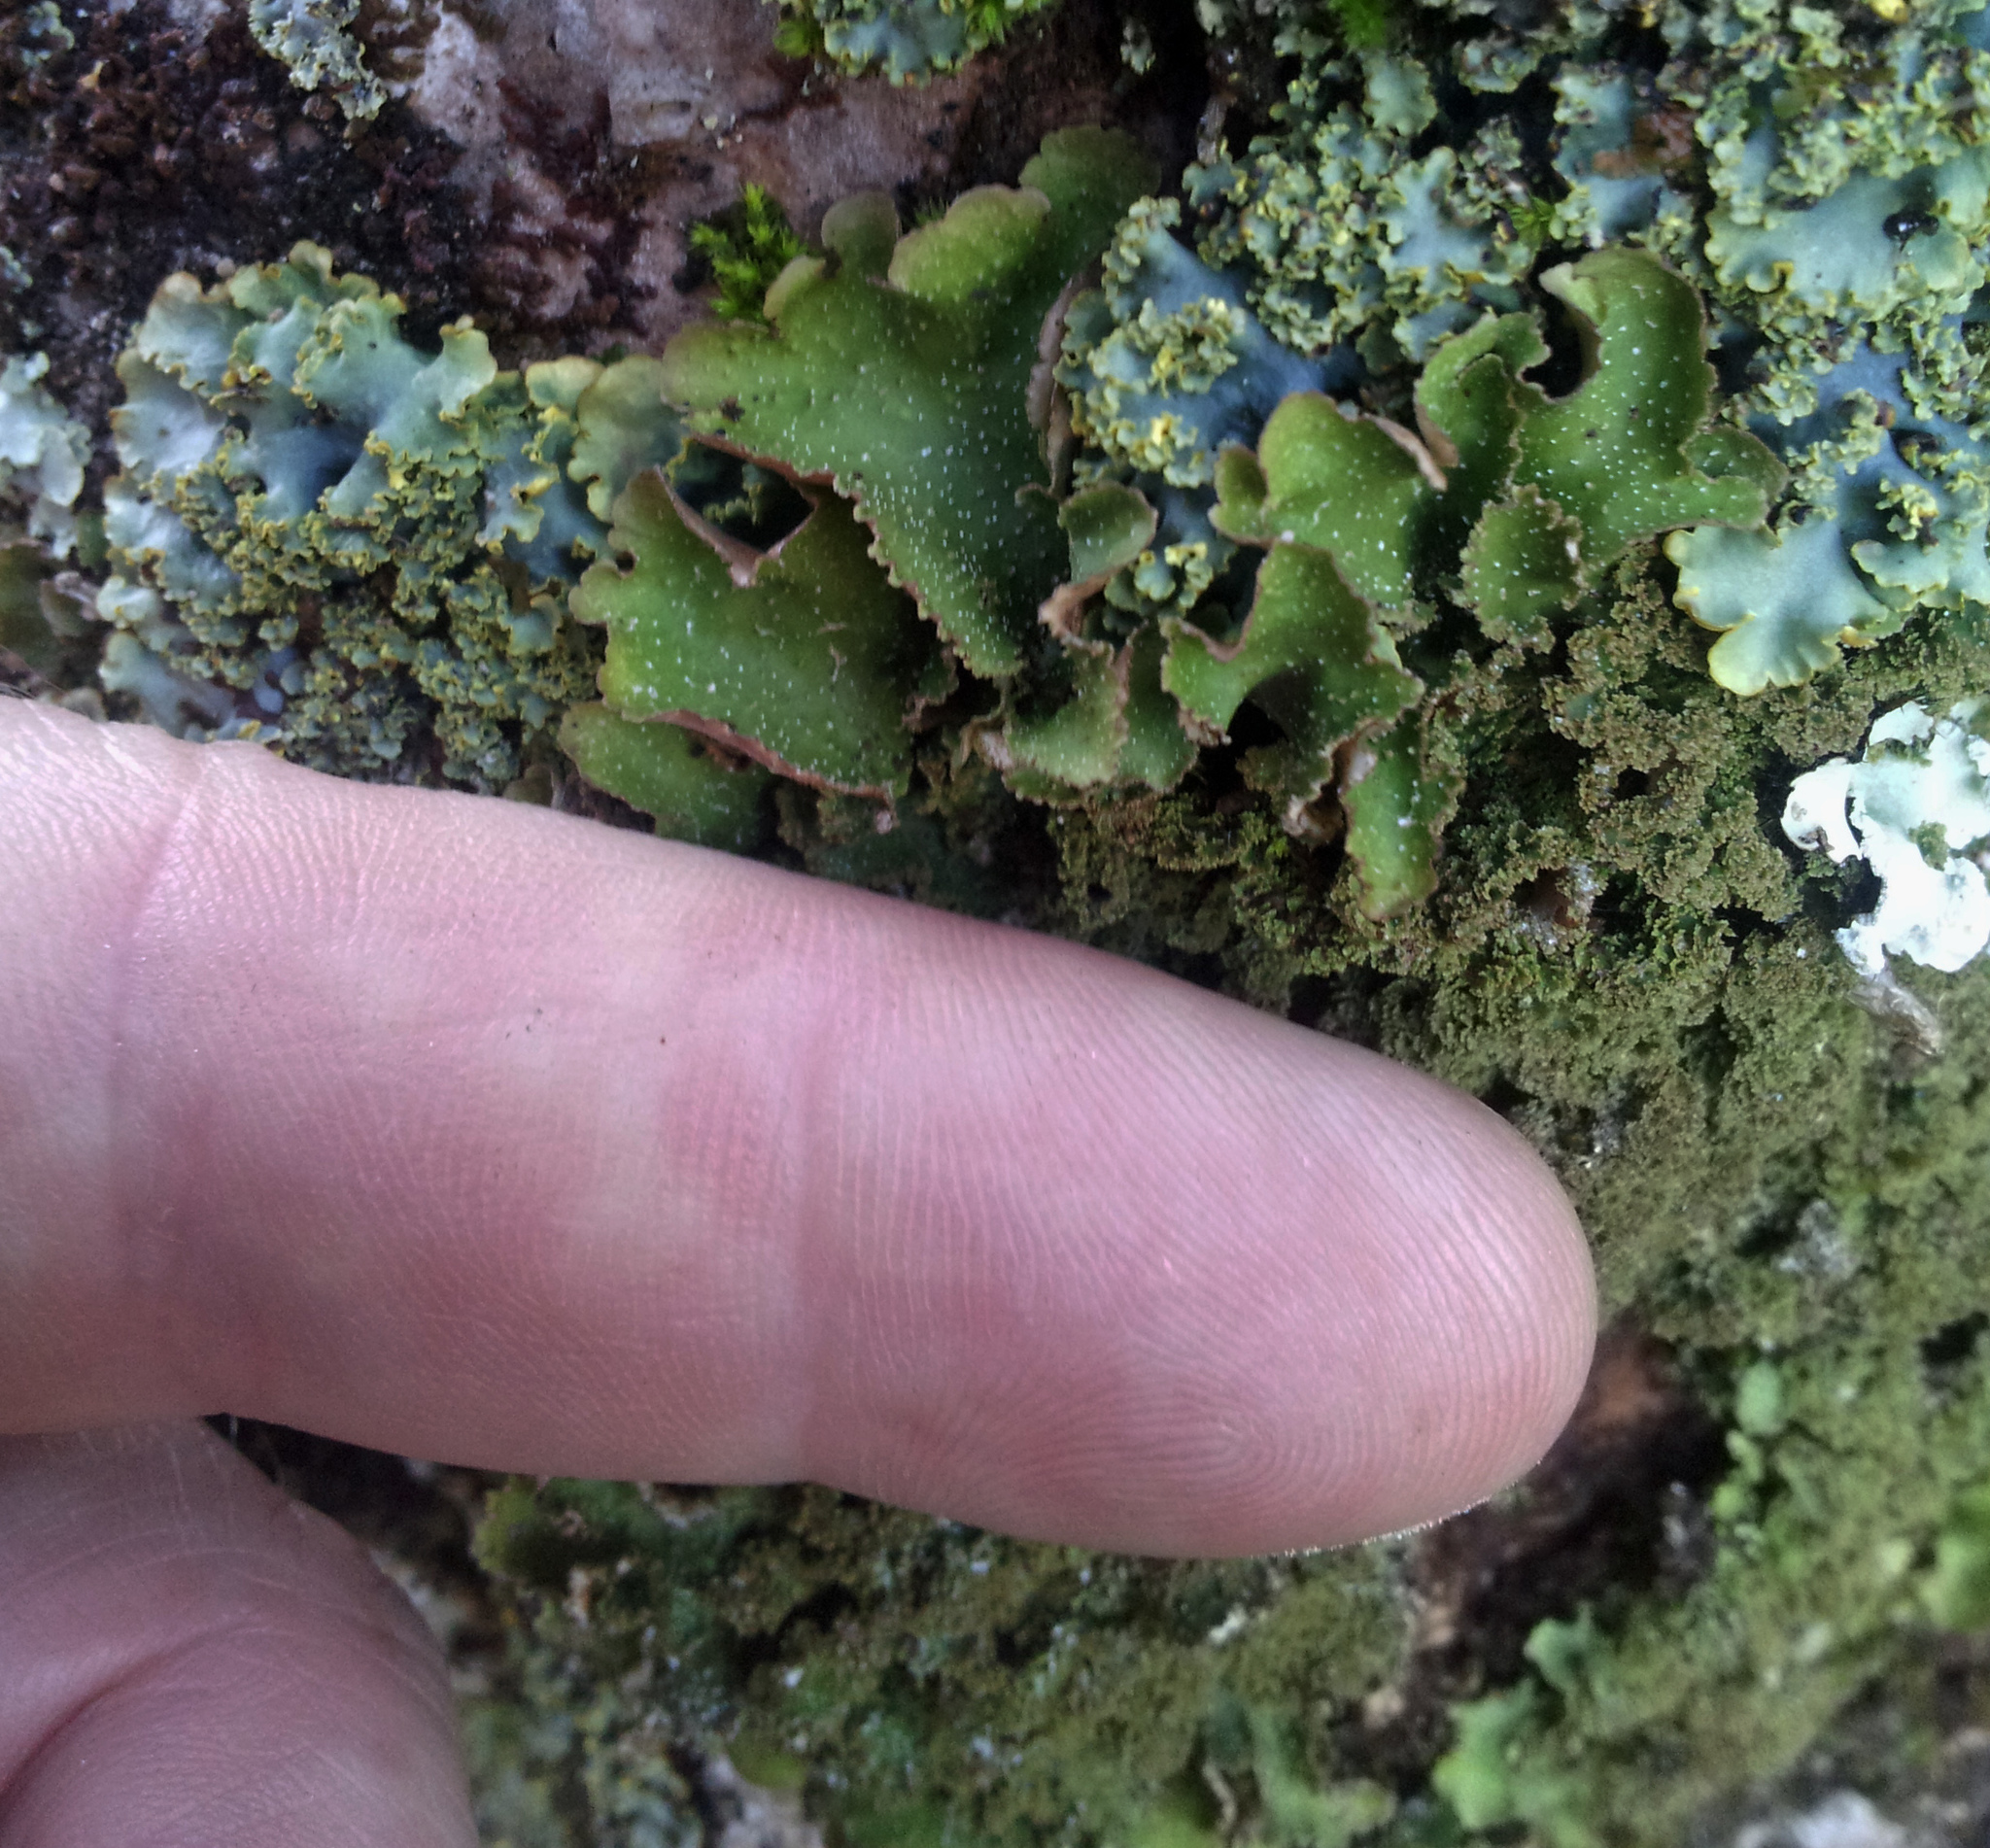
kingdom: Fungi
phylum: Ascomycota
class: Lecanoromycetes
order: Peltigerales
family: Lobariaceae
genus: Pseudocyphellaria
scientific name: Pseudocyphellaria episticta
